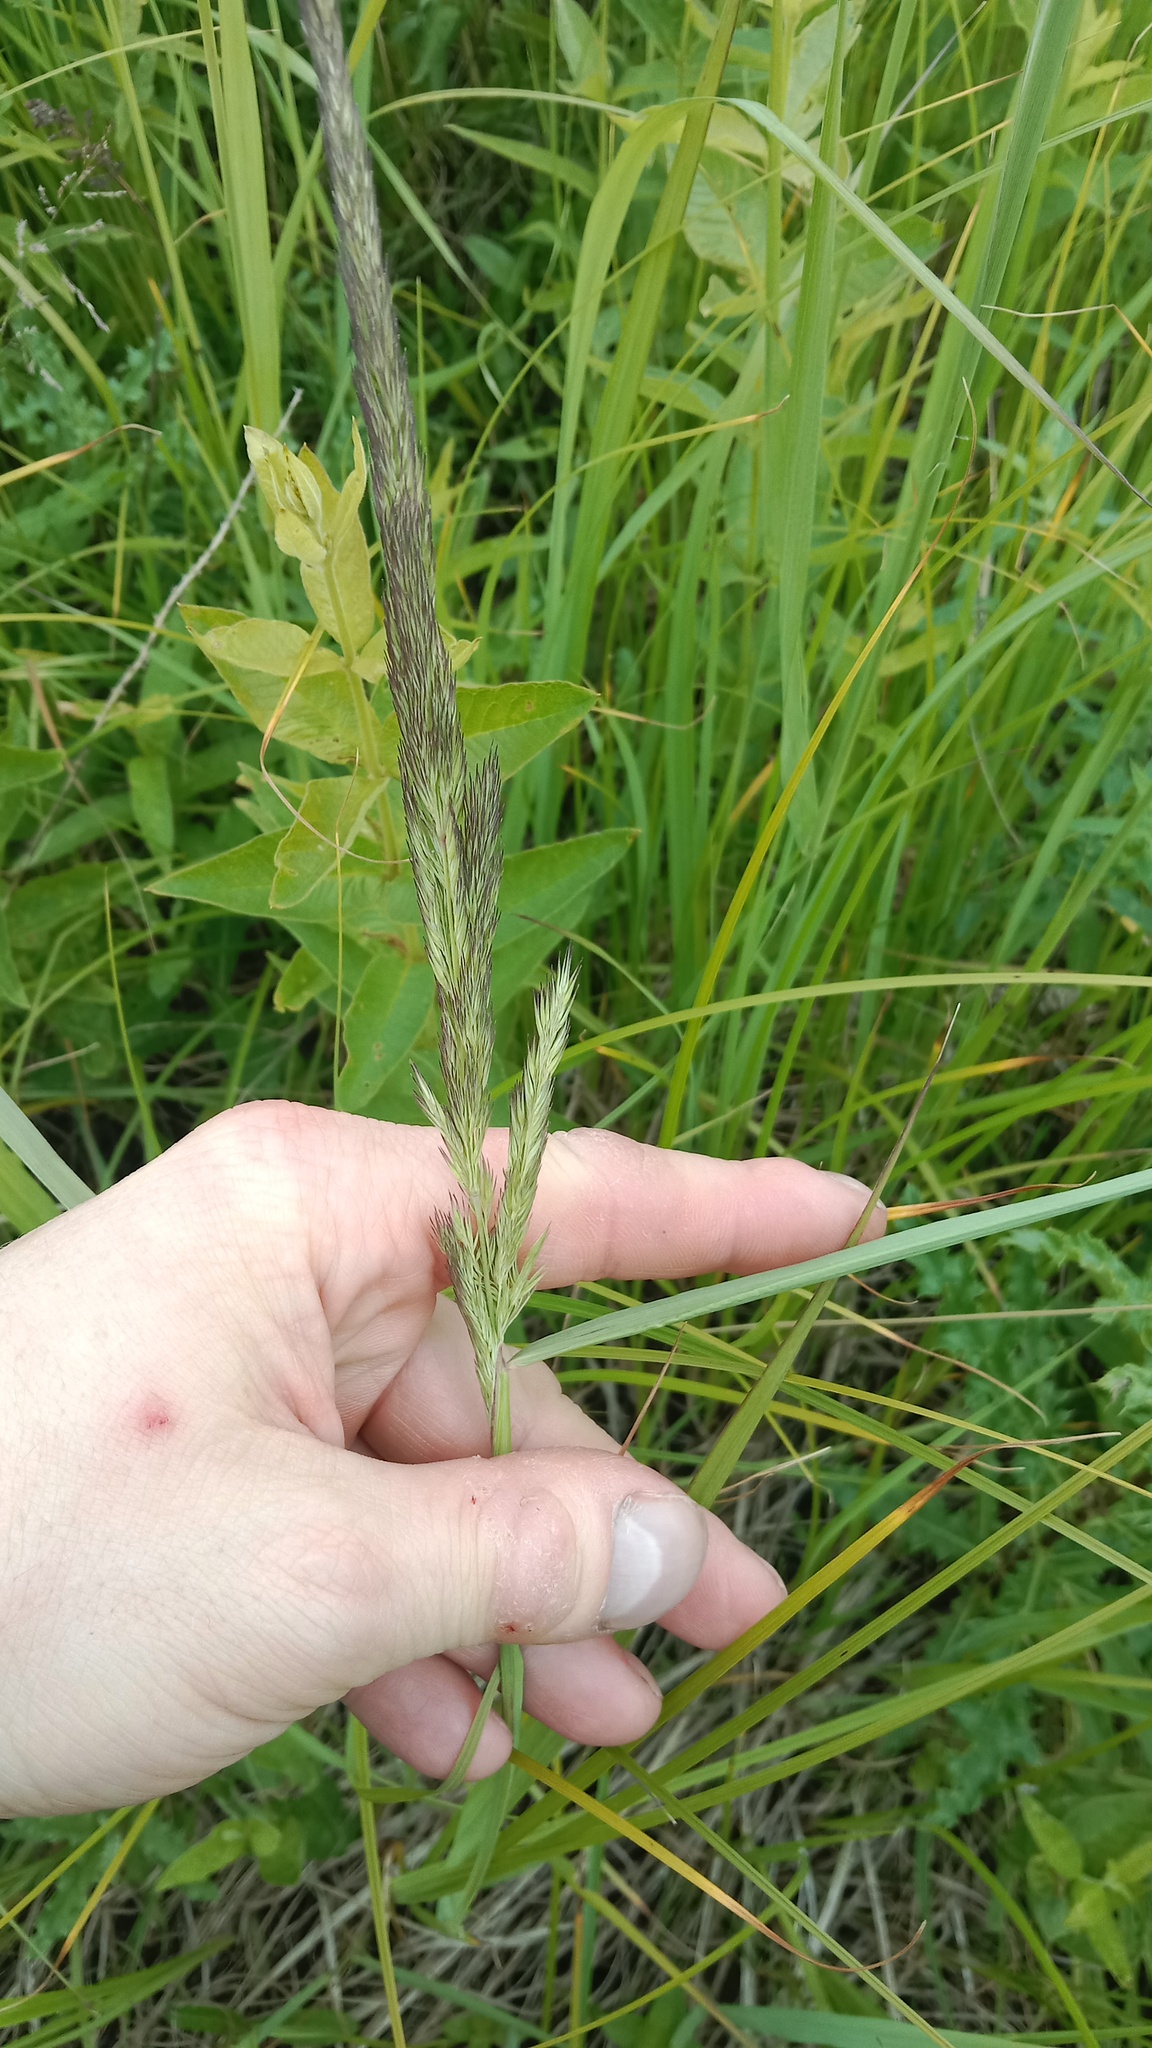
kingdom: Plantae
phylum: Tracheophyta
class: Liliopsida
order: Poales
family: Poaceae
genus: Calamagrostis
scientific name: Calamagrostis epigejos
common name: Wood small-reed
